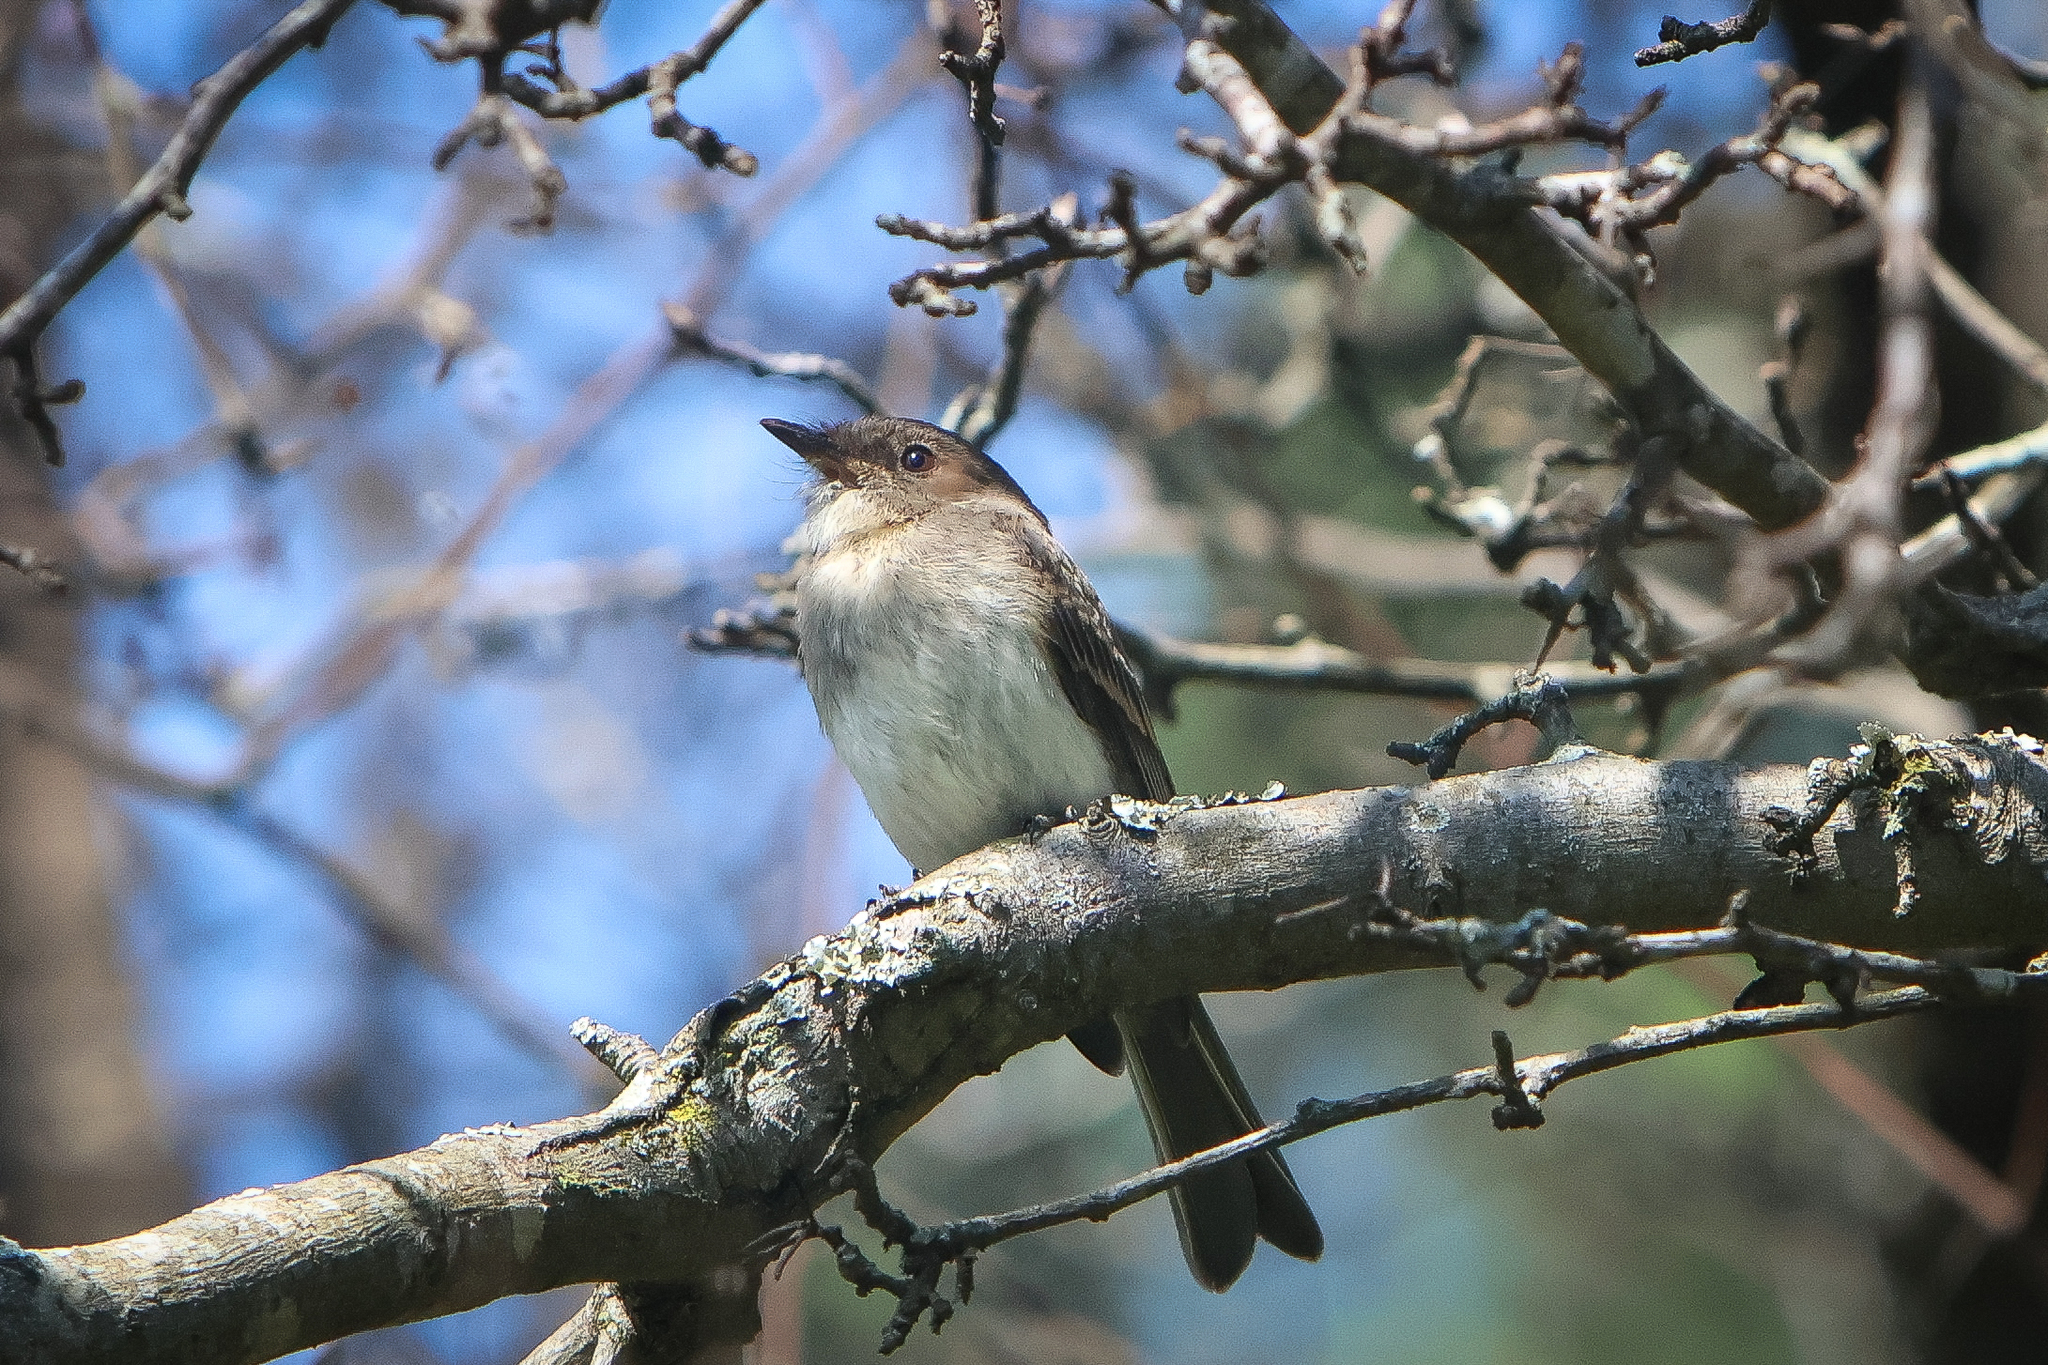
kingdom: Animalia
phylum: Chordata
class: Aves
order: Passeriformes
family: Tyrannidae
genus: Sayornis
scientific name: Sayornis phoebe
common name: Eastern phoebe
